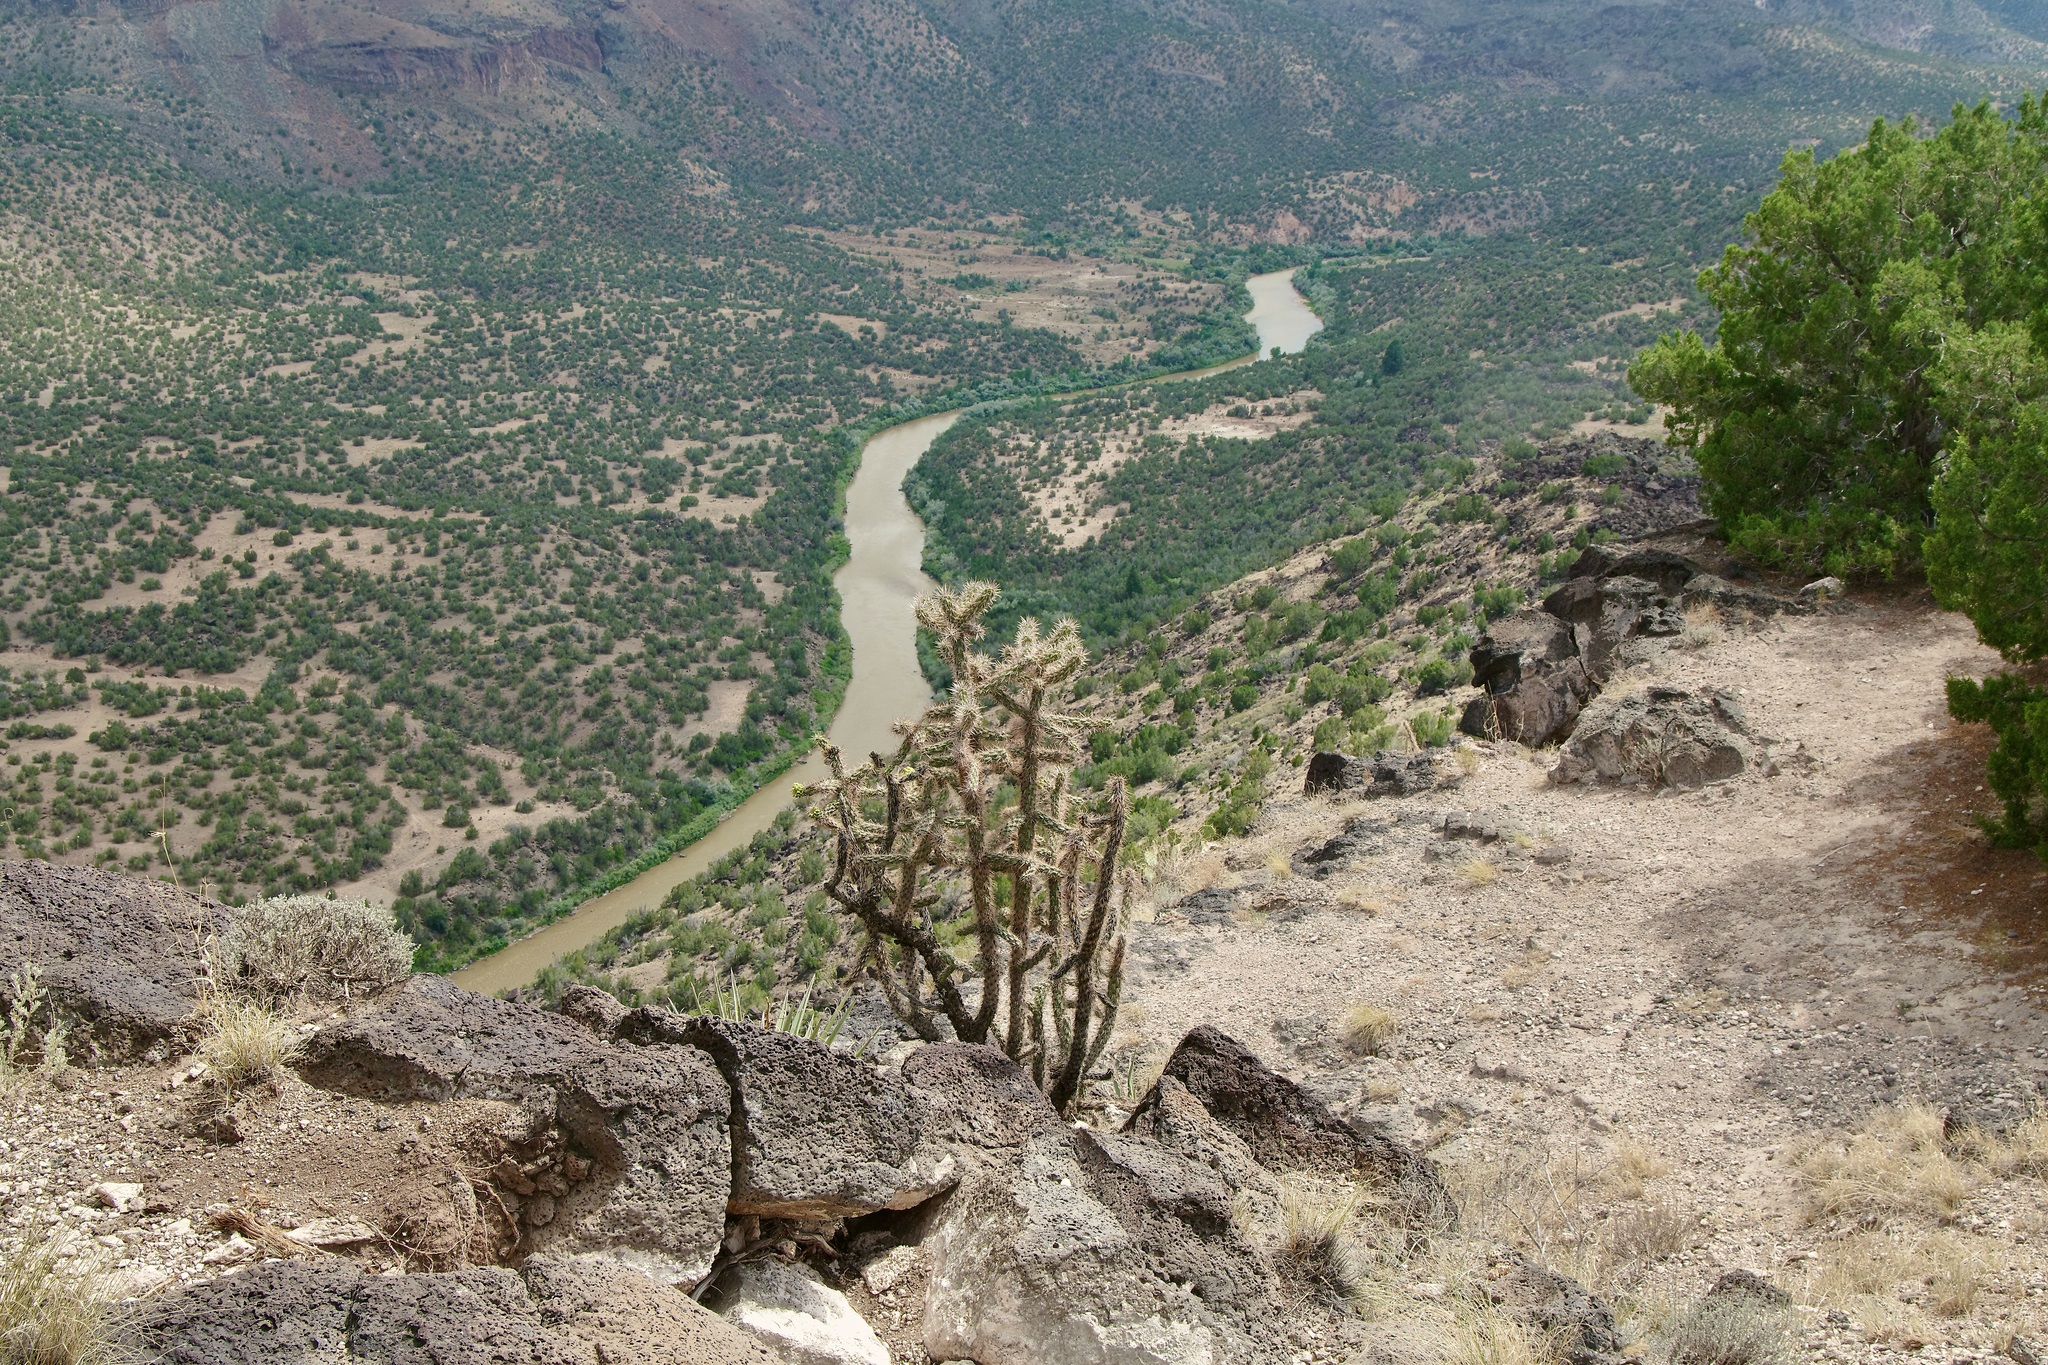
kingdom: Plantae
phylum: Tracheophyta
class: Magnoliopsida
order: Caryophyllales
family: Cactaceae
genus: Cylindropuntia
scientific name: Cylindropuntia imbricata
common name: Candelabrum cactus
